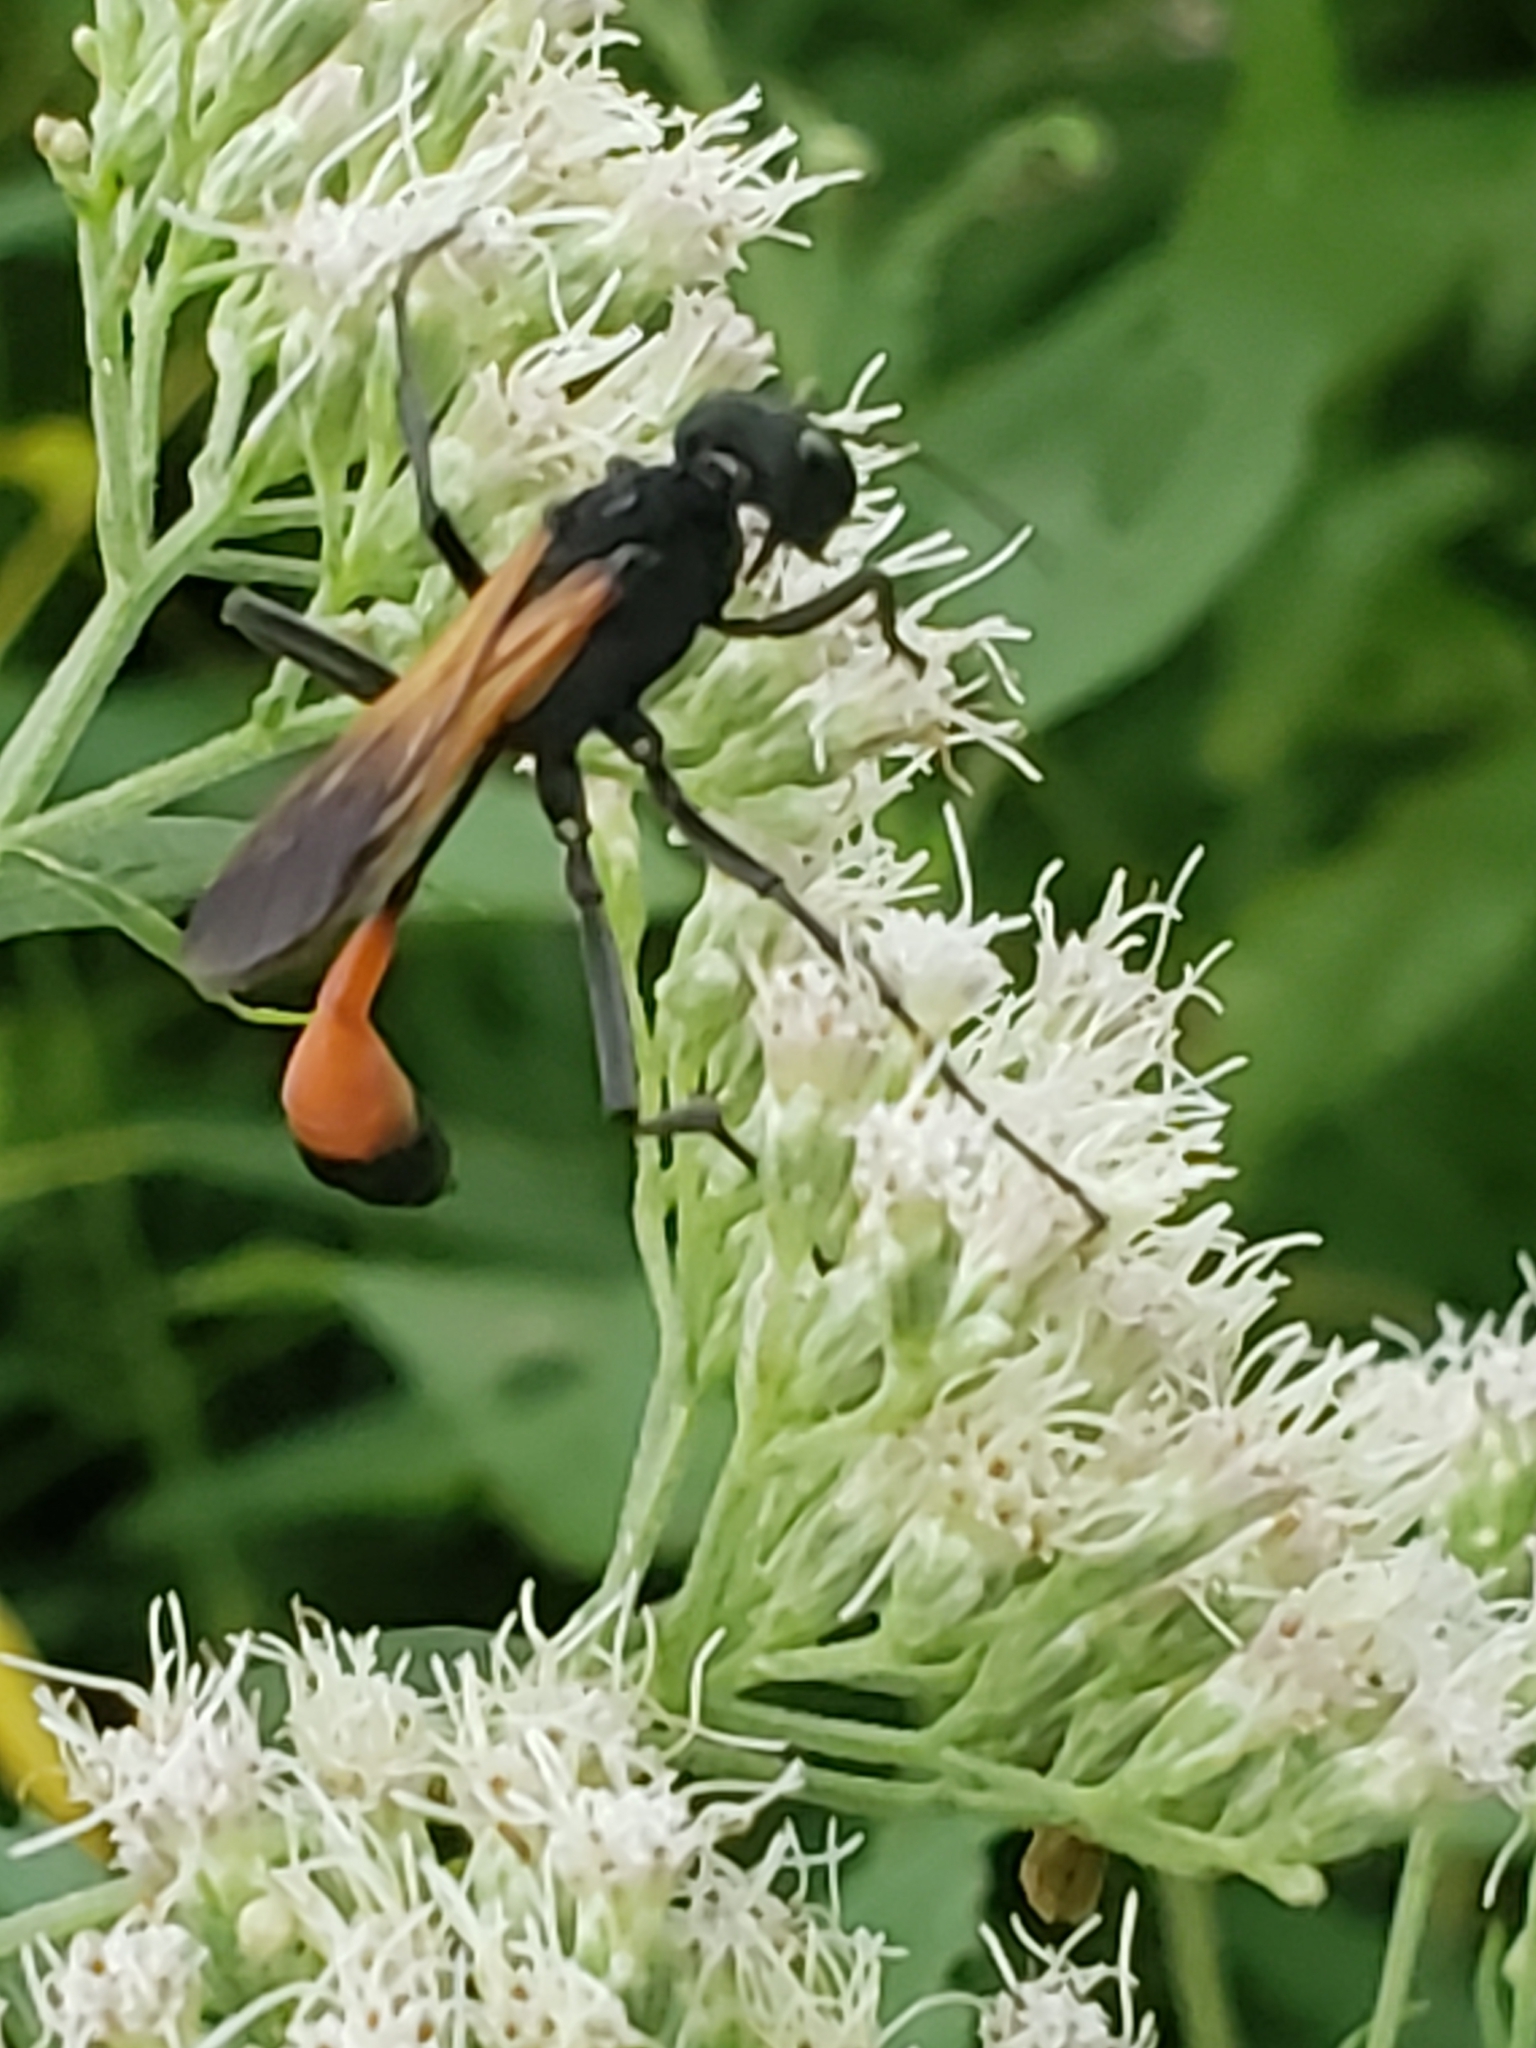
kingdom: Animalia
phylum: Arthropoda
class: Insecta
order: Hymenoptera
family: Sphecidae
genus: Ammophila
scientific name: Ammophila pictipennis
